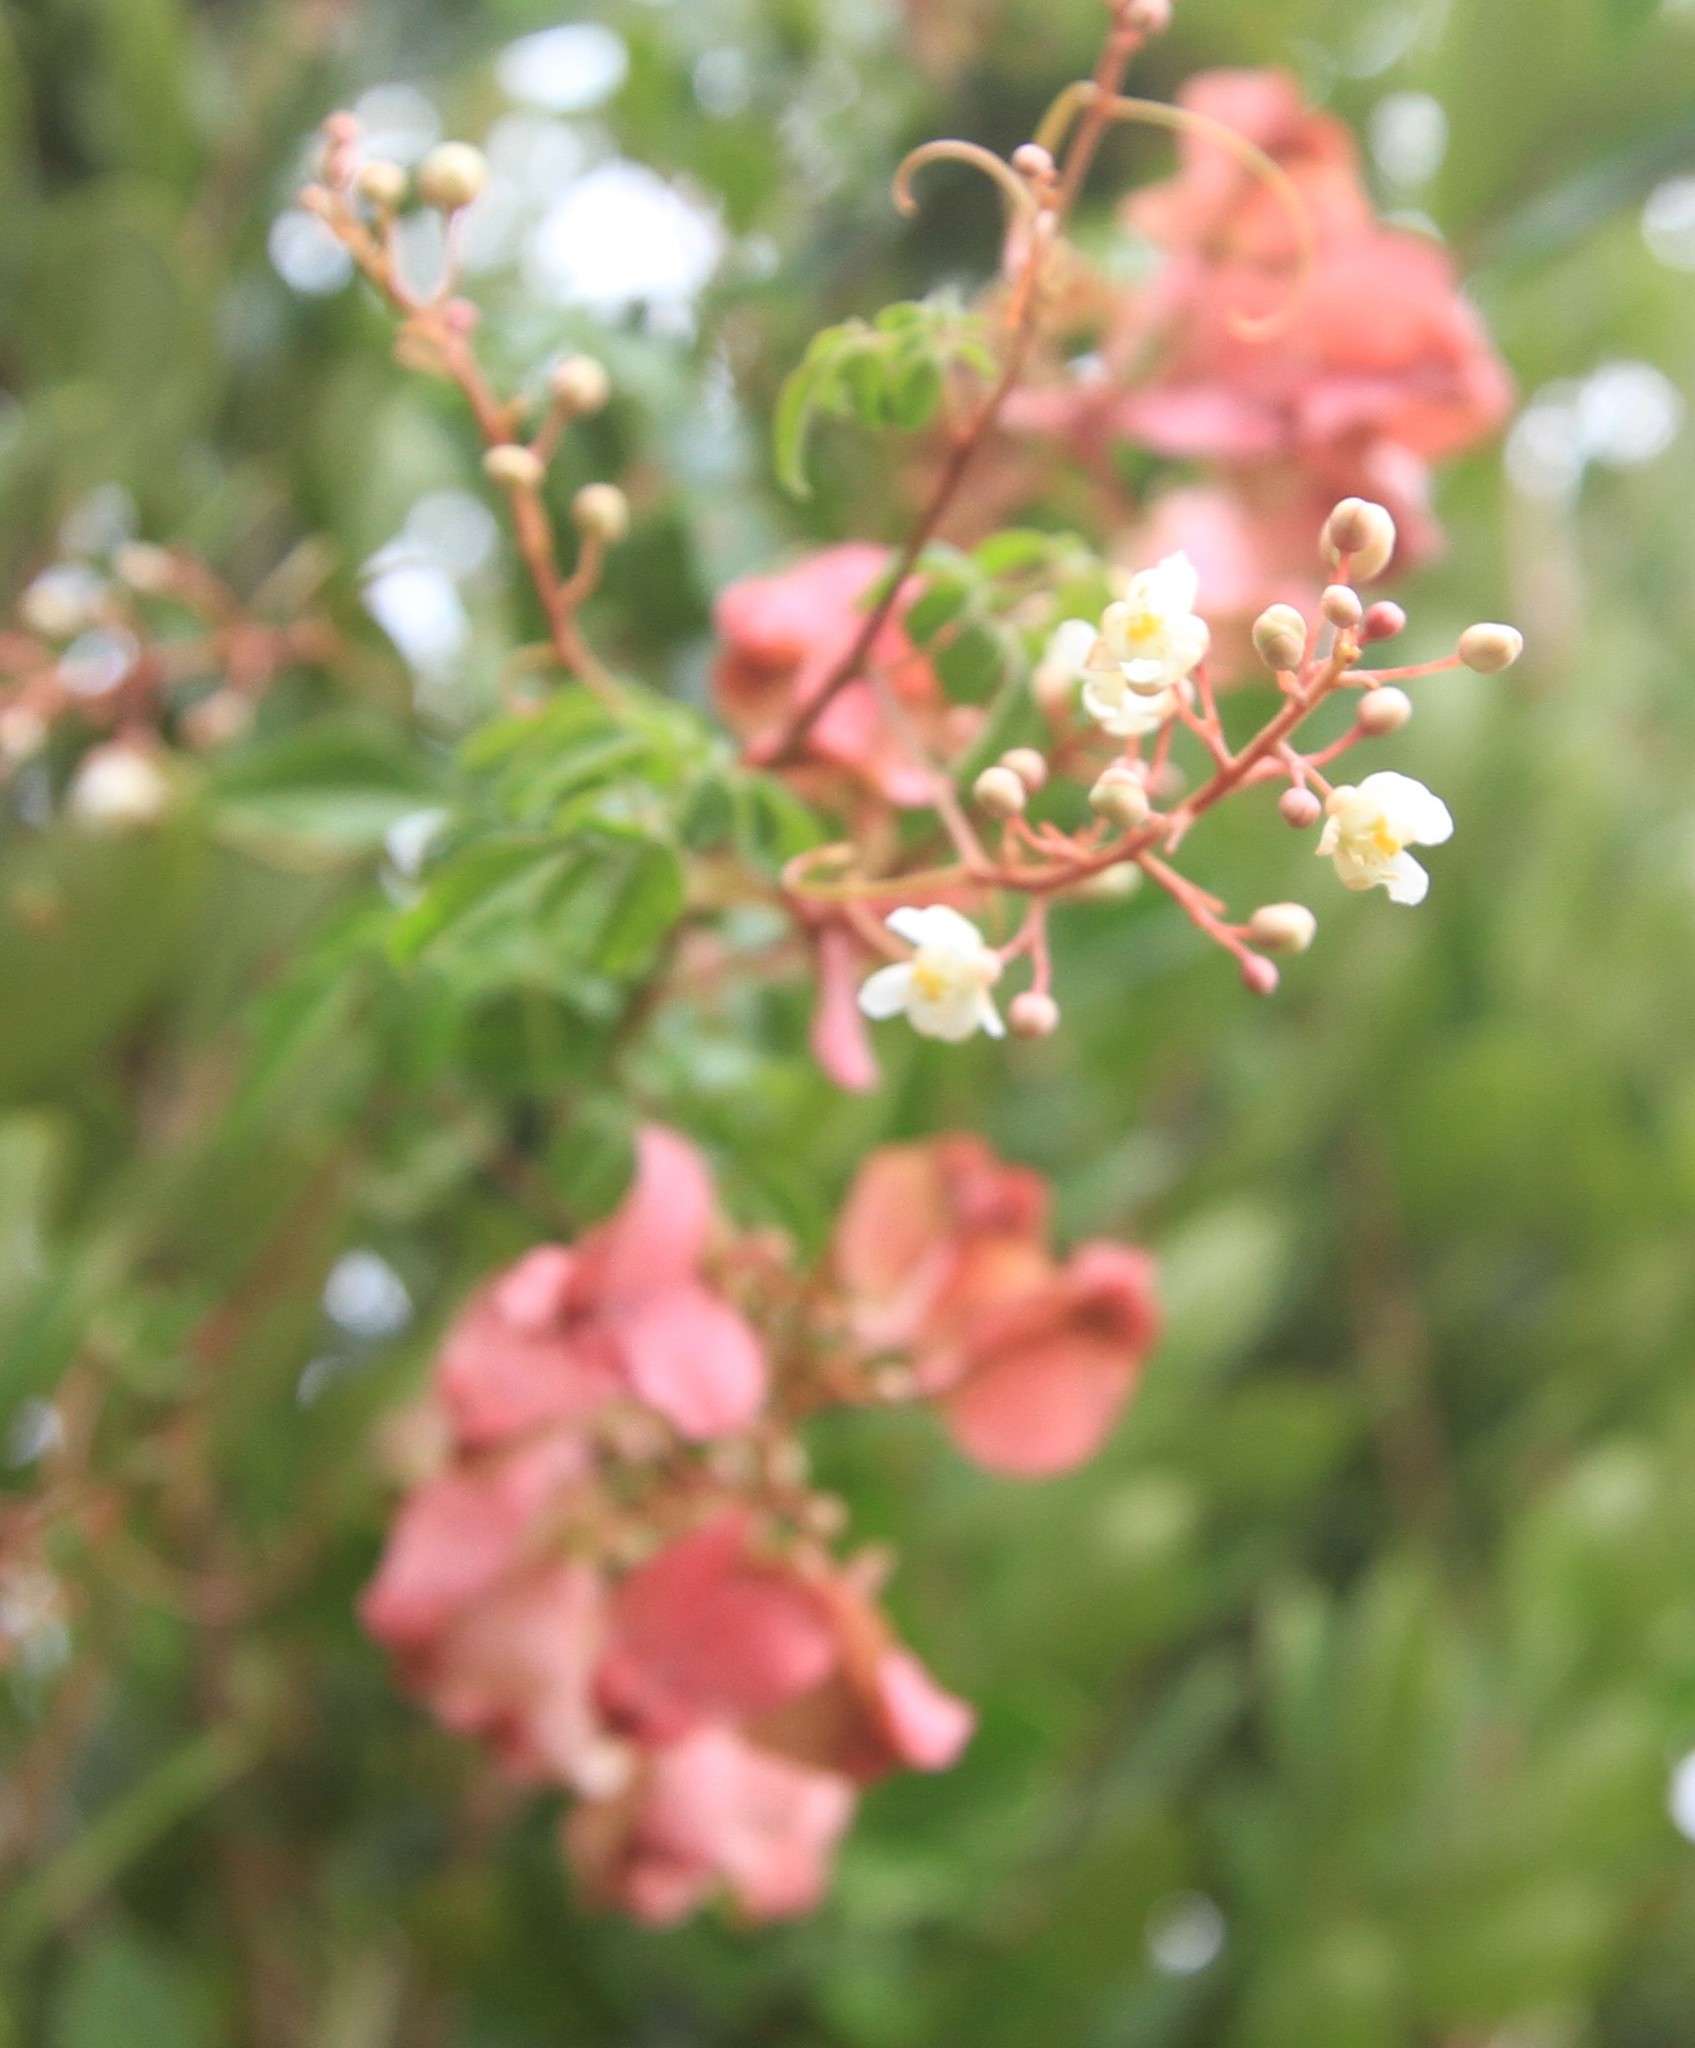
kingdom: Plantae
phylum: Tracheophyta
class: Magnoliopsida
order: Sapindales
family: Sapindaceae
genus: Serjania
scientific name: Serjania polyphylla
